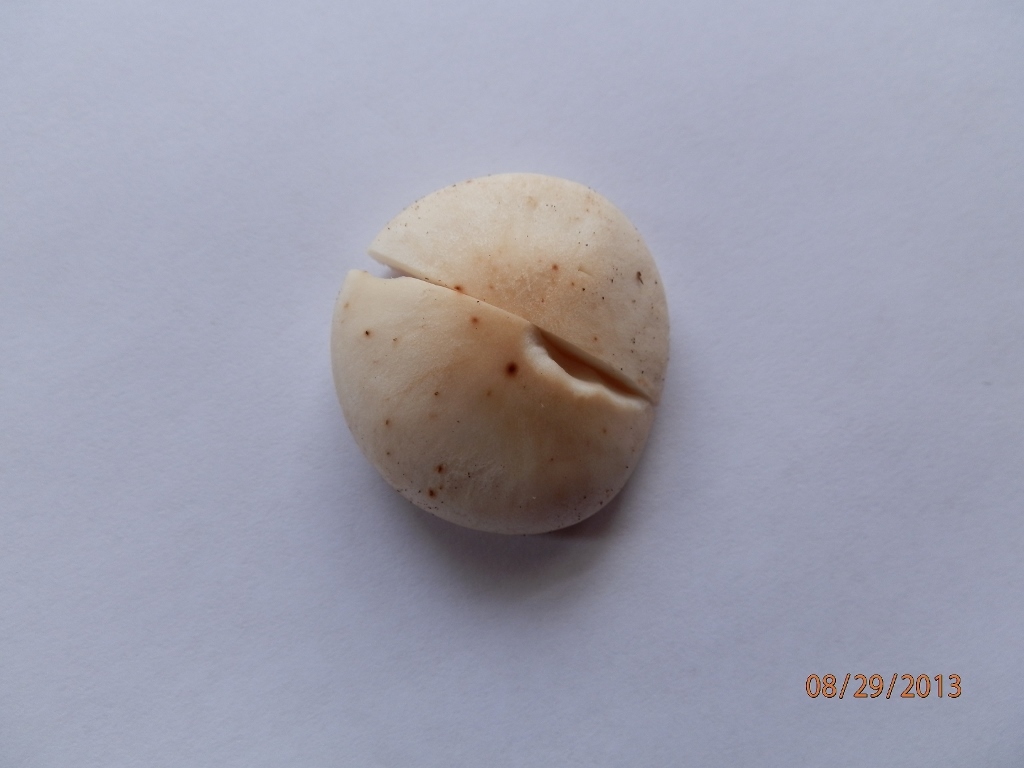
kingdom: Fungi
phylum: Basidiomycota
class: Agaricomycetes
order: Agaricales
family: Omphalotaceae
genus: Rhodocollybia
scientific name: Rhodocollybia maculata
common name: Spotted tough-shank
